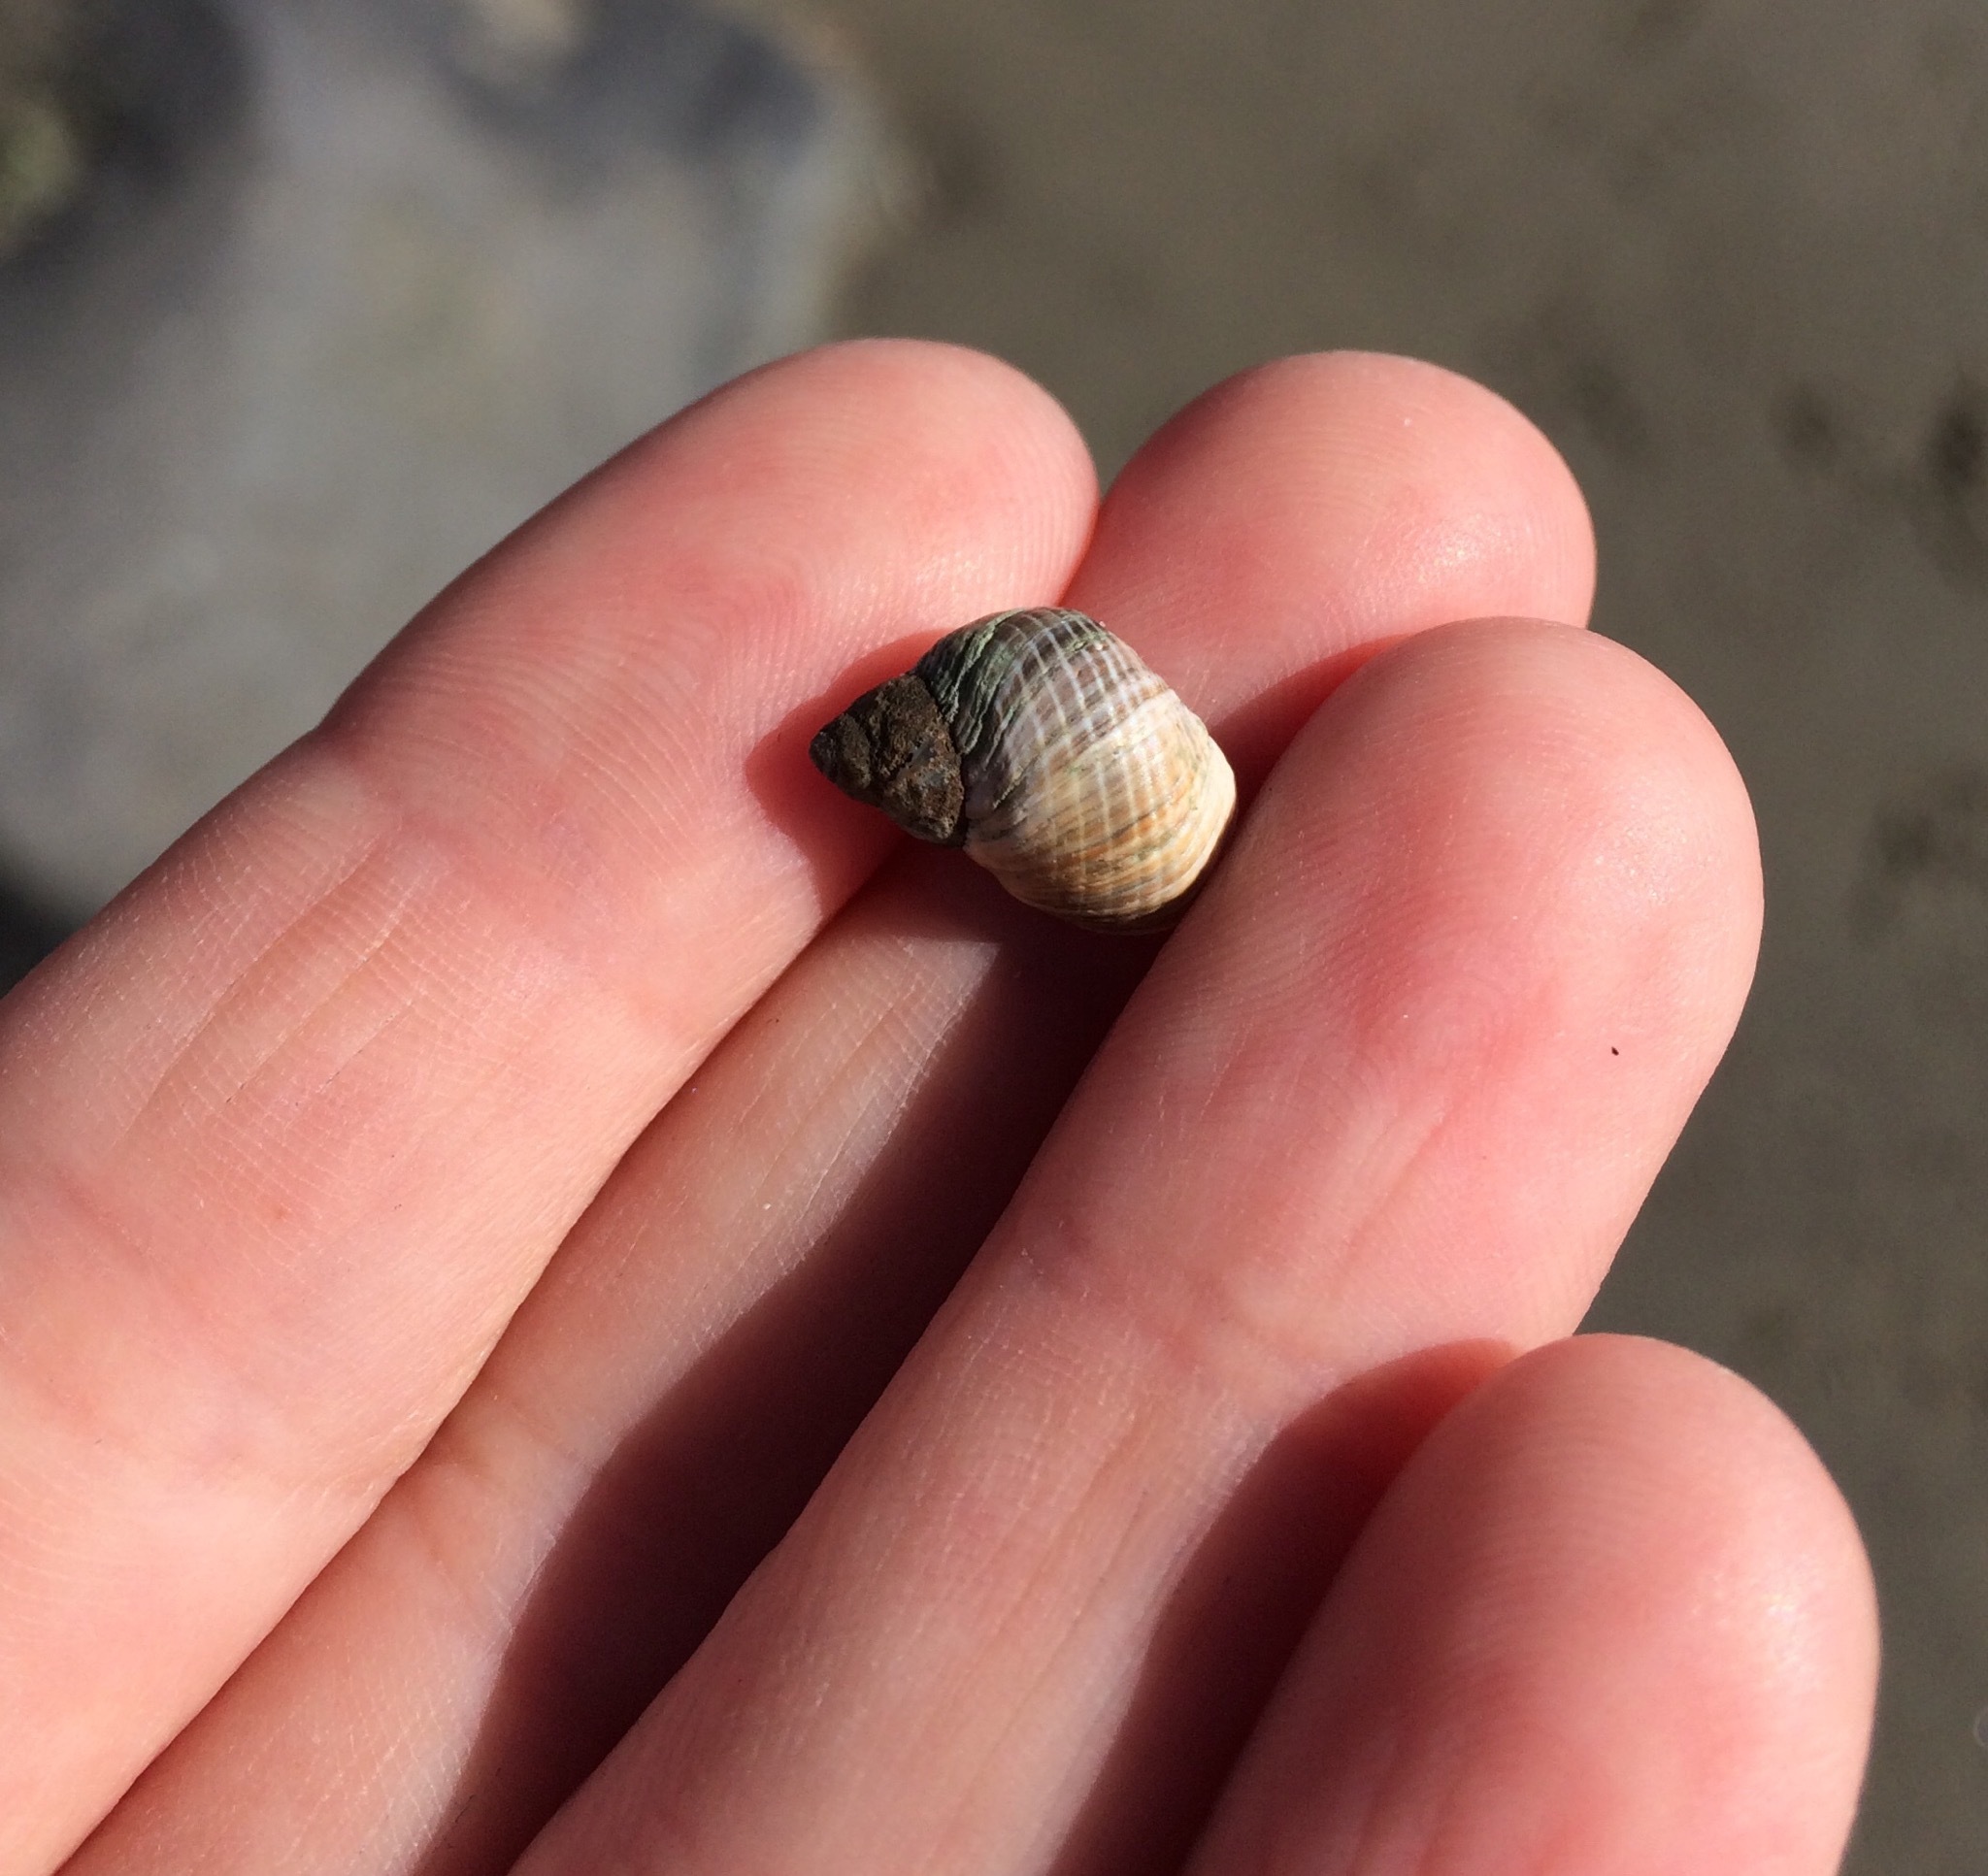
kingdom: Animalia
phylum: Mollusca
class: Gastropoda
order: Littorinimorpha
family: Littorinidae
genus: Austrolittorina
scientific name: Austrolittorina cincta
